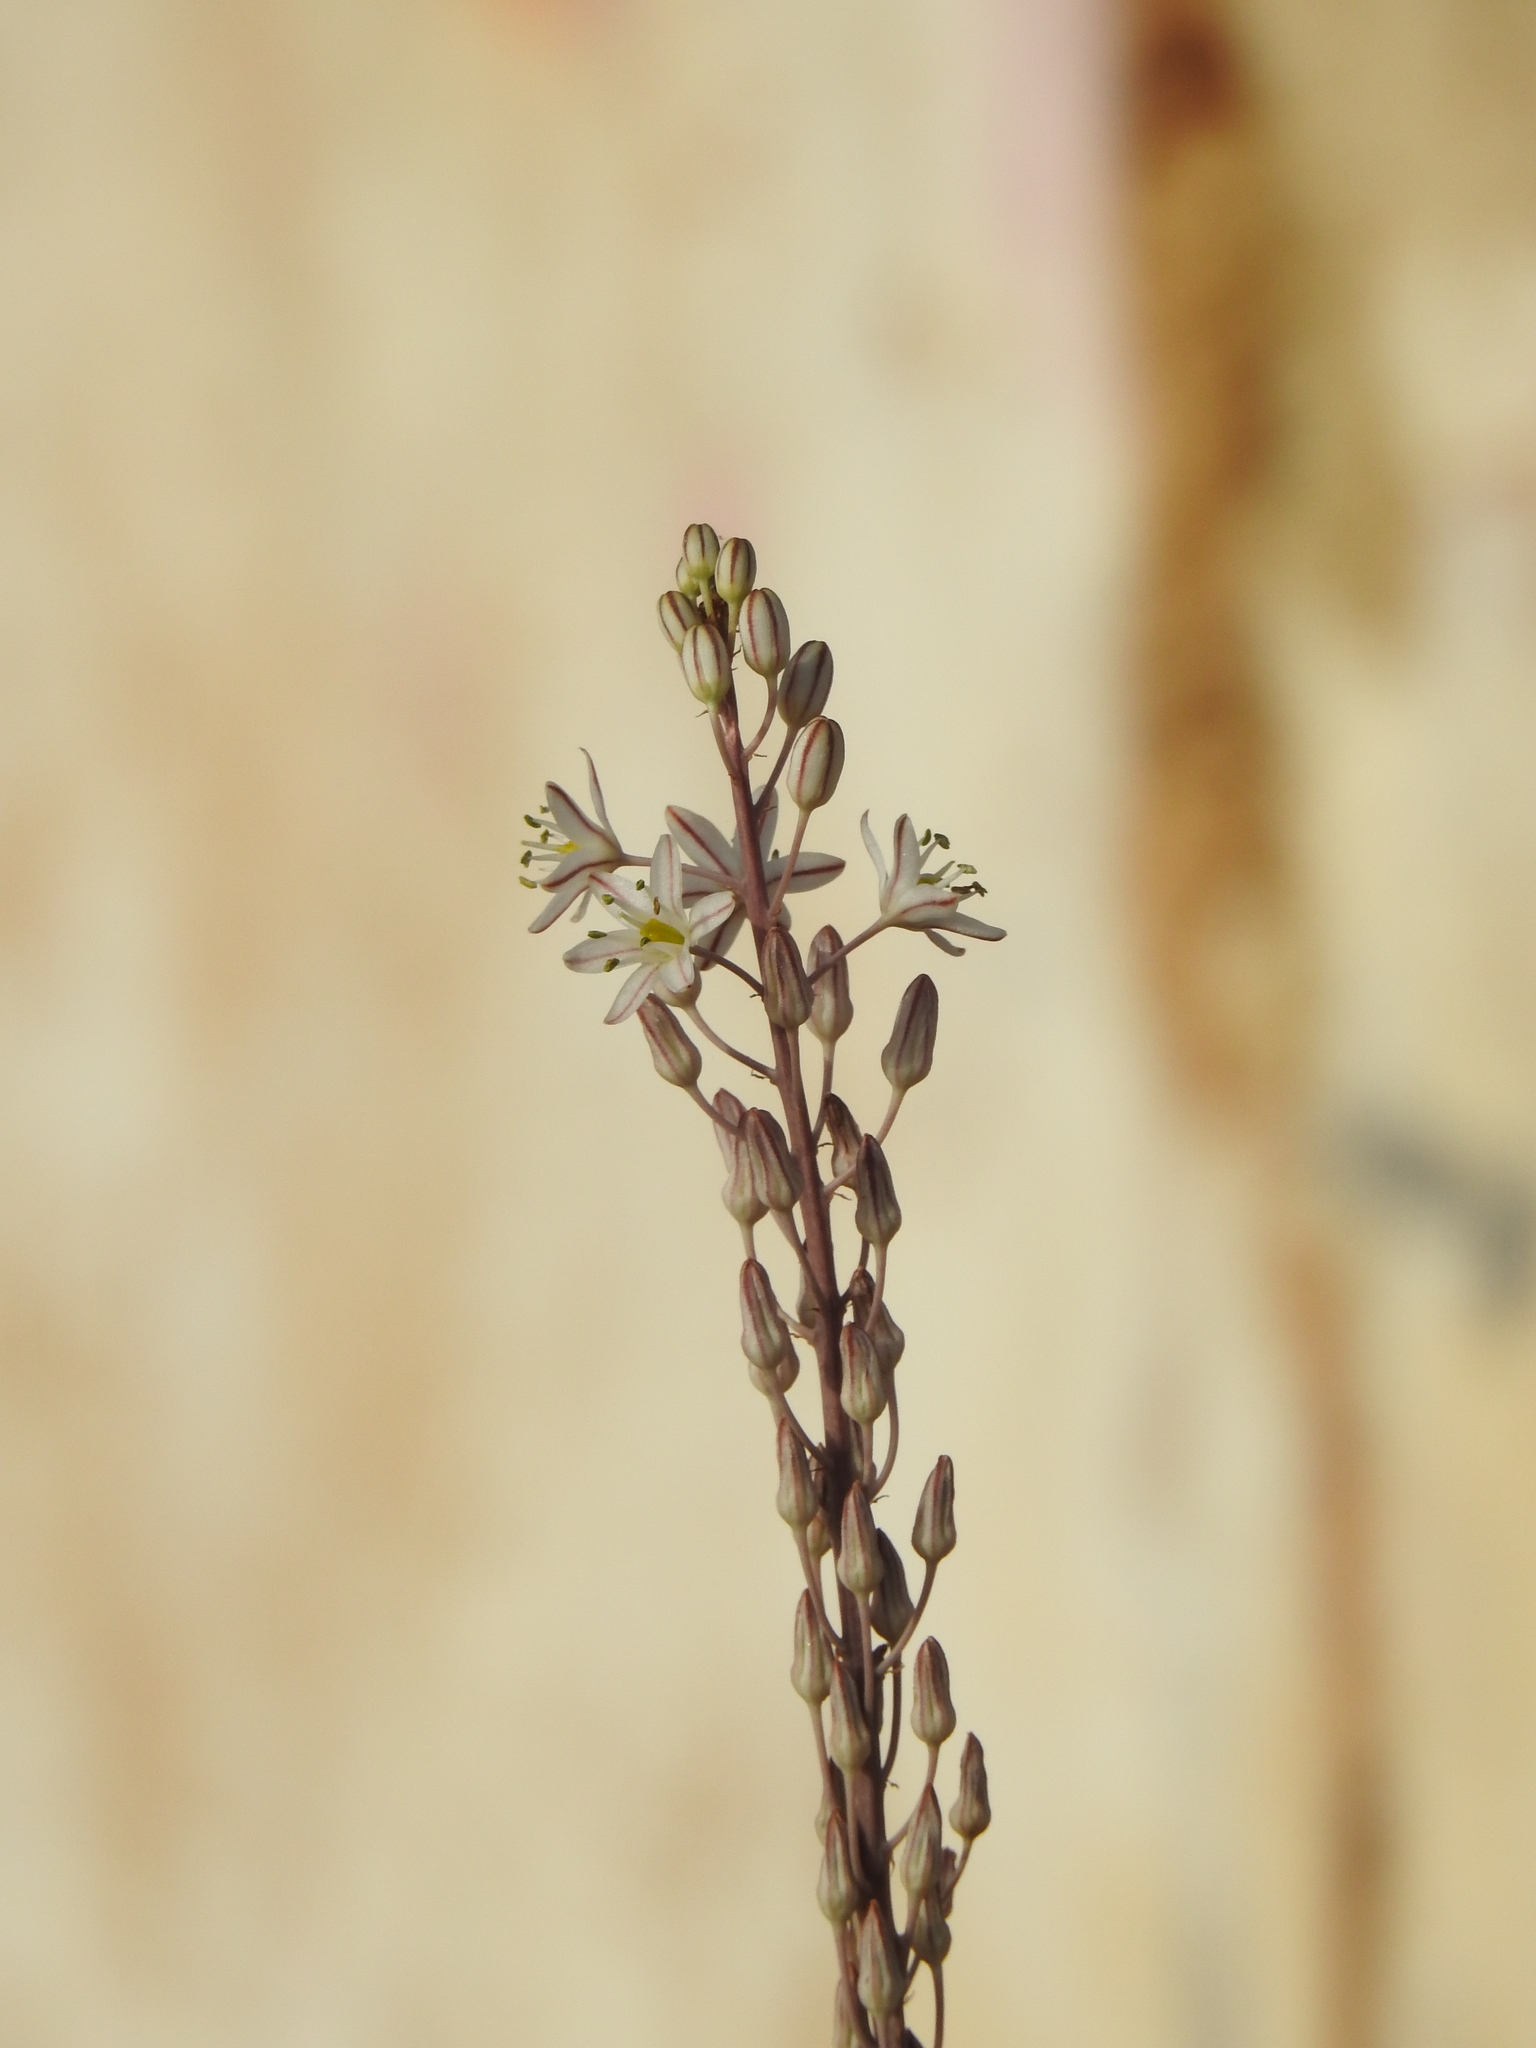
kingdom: Plantae
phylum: Tracheophyta
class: Liliopsida
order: Asparagales
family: Asparagaceae
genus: Drimia
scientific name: Drimia maritima
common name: Maritime squill
